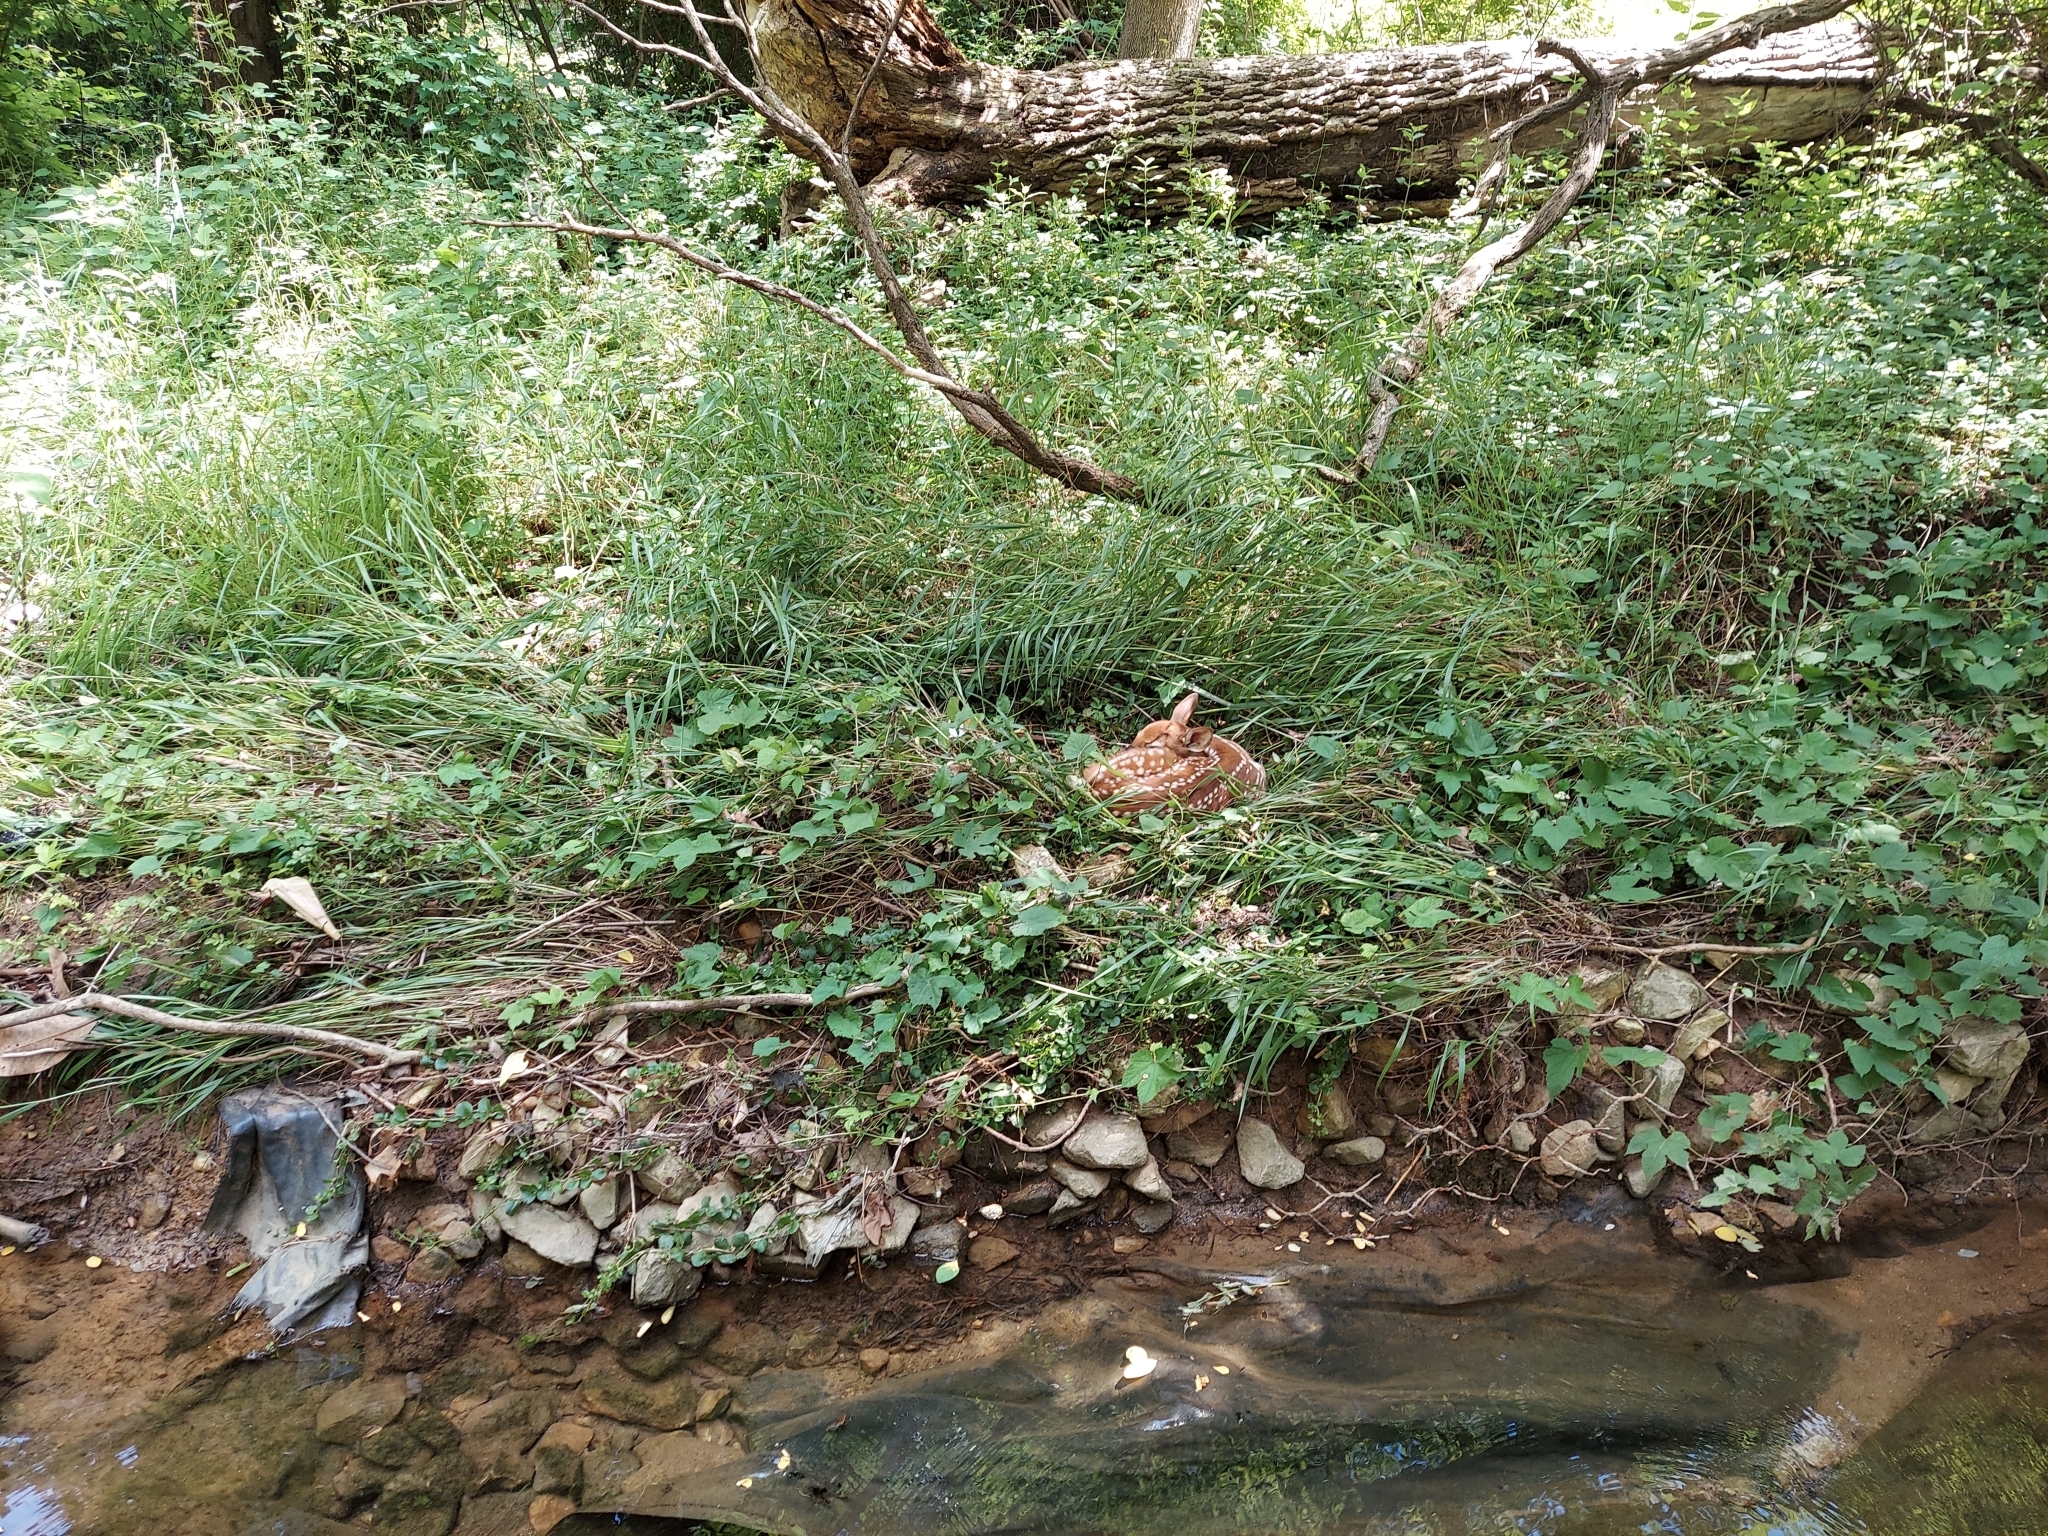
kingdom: Animalia
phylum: Chordata
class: Mammalia
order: Artiodactyla
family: Cervidae
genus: Odocoileus
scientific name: Odocoileus virginianus
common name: White-tailed deer
